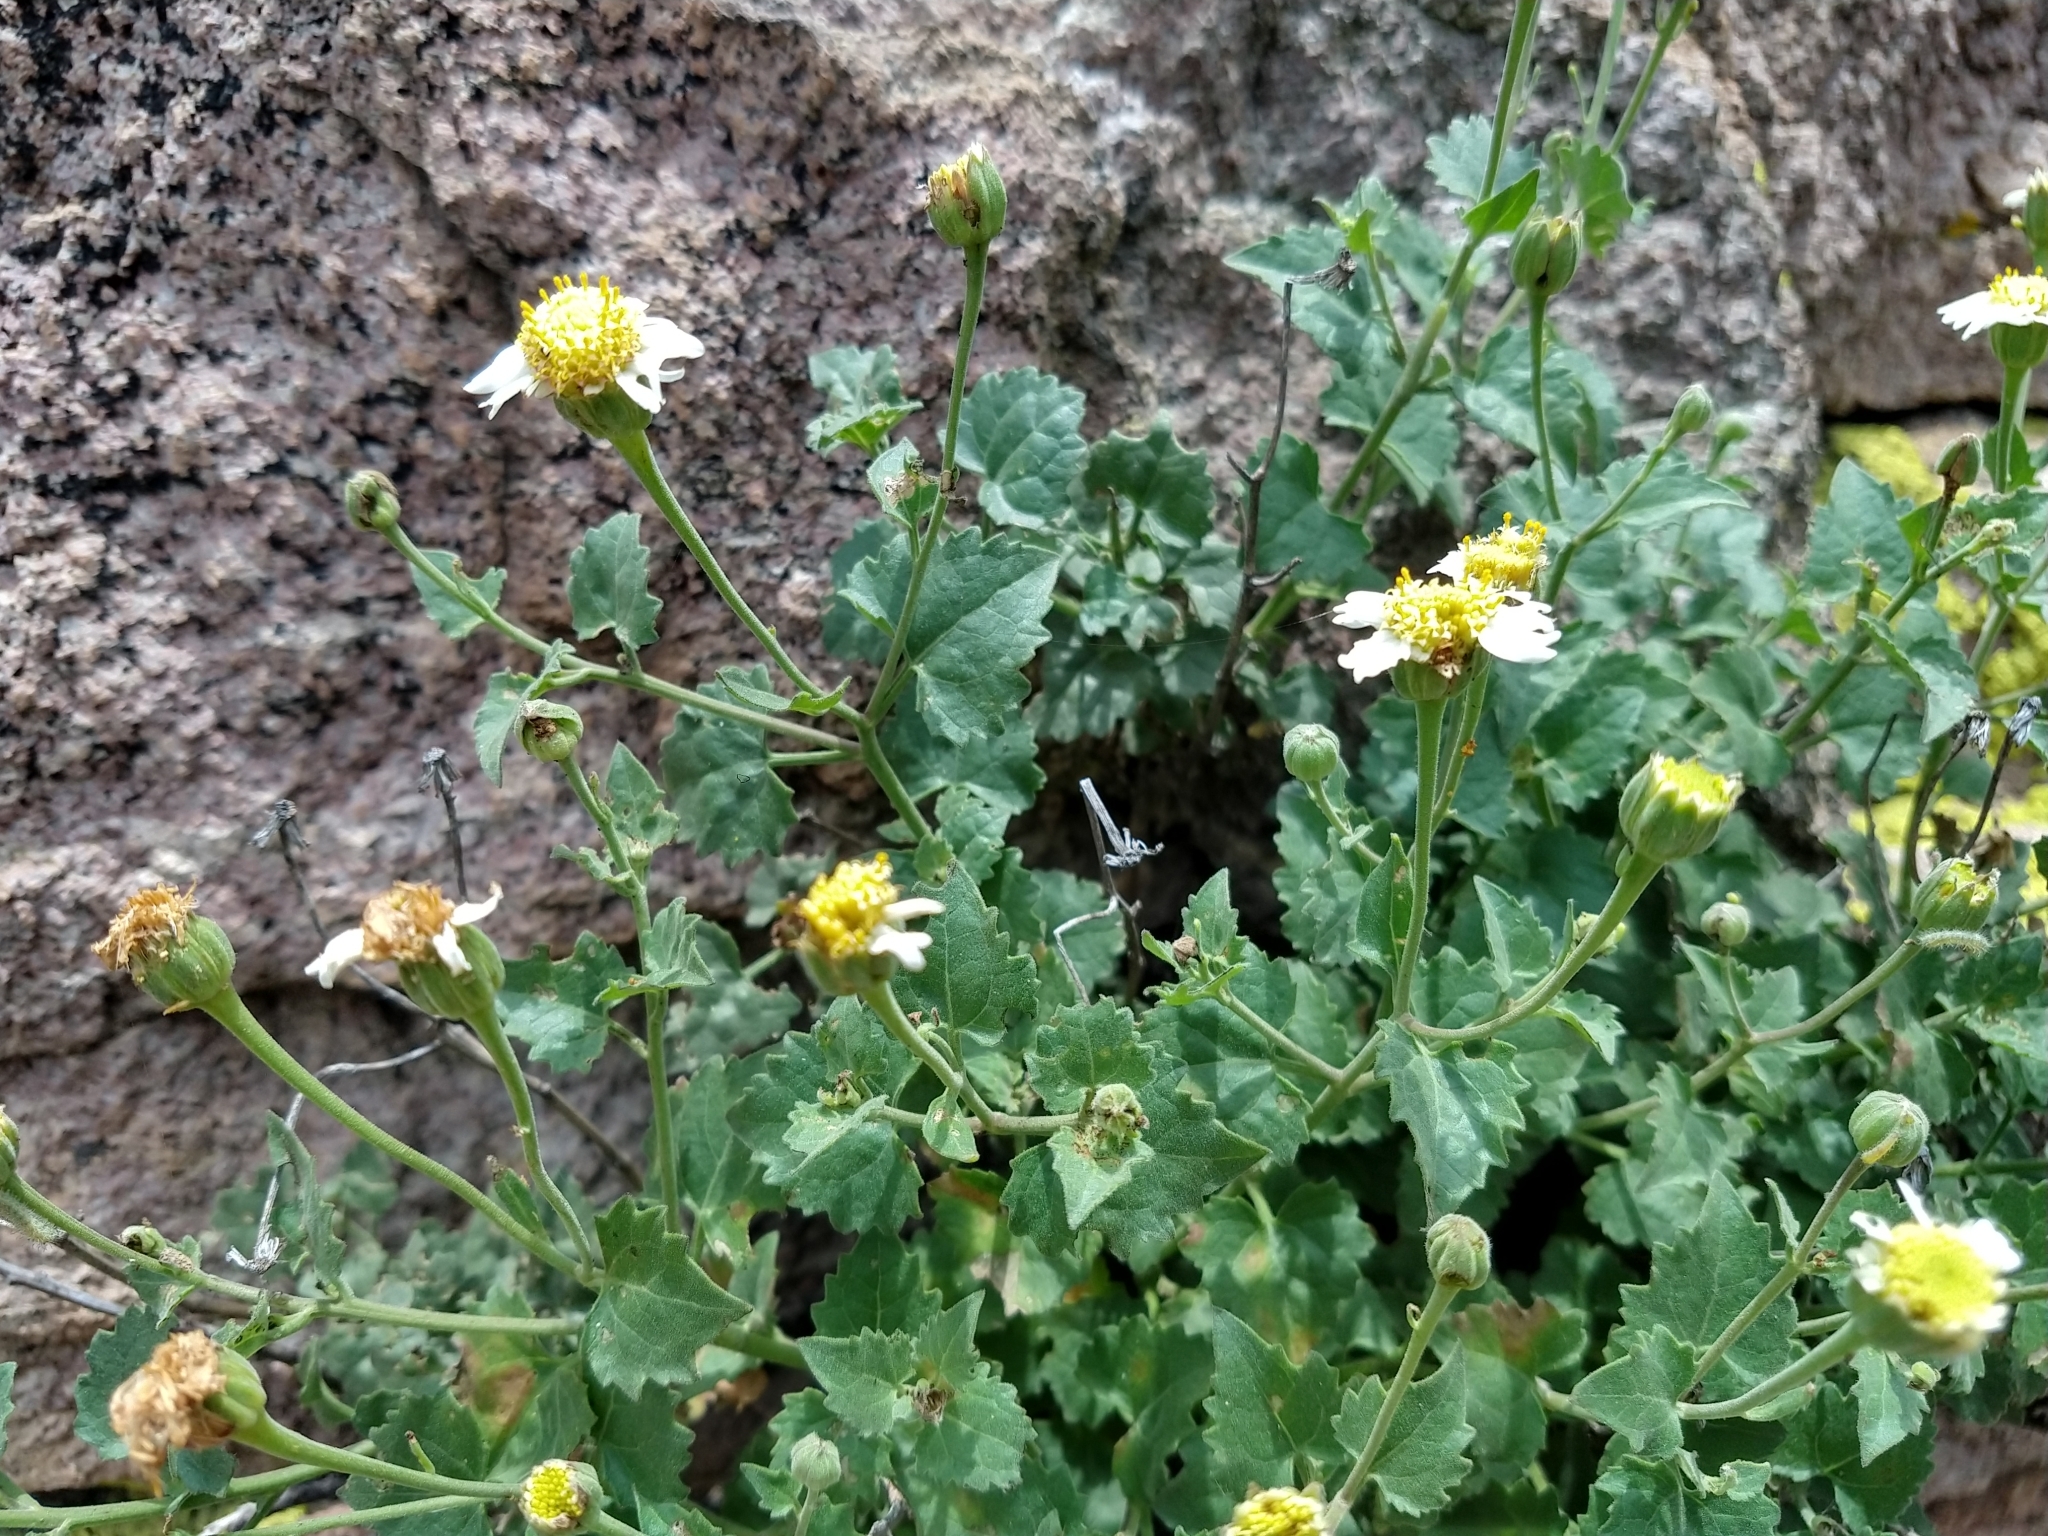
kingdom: Plantae
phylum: Tracheophyta
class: Magnoliopsida
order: Asterales
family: Asteraceae
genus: Eutetras
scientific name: Eutetras palmeri
